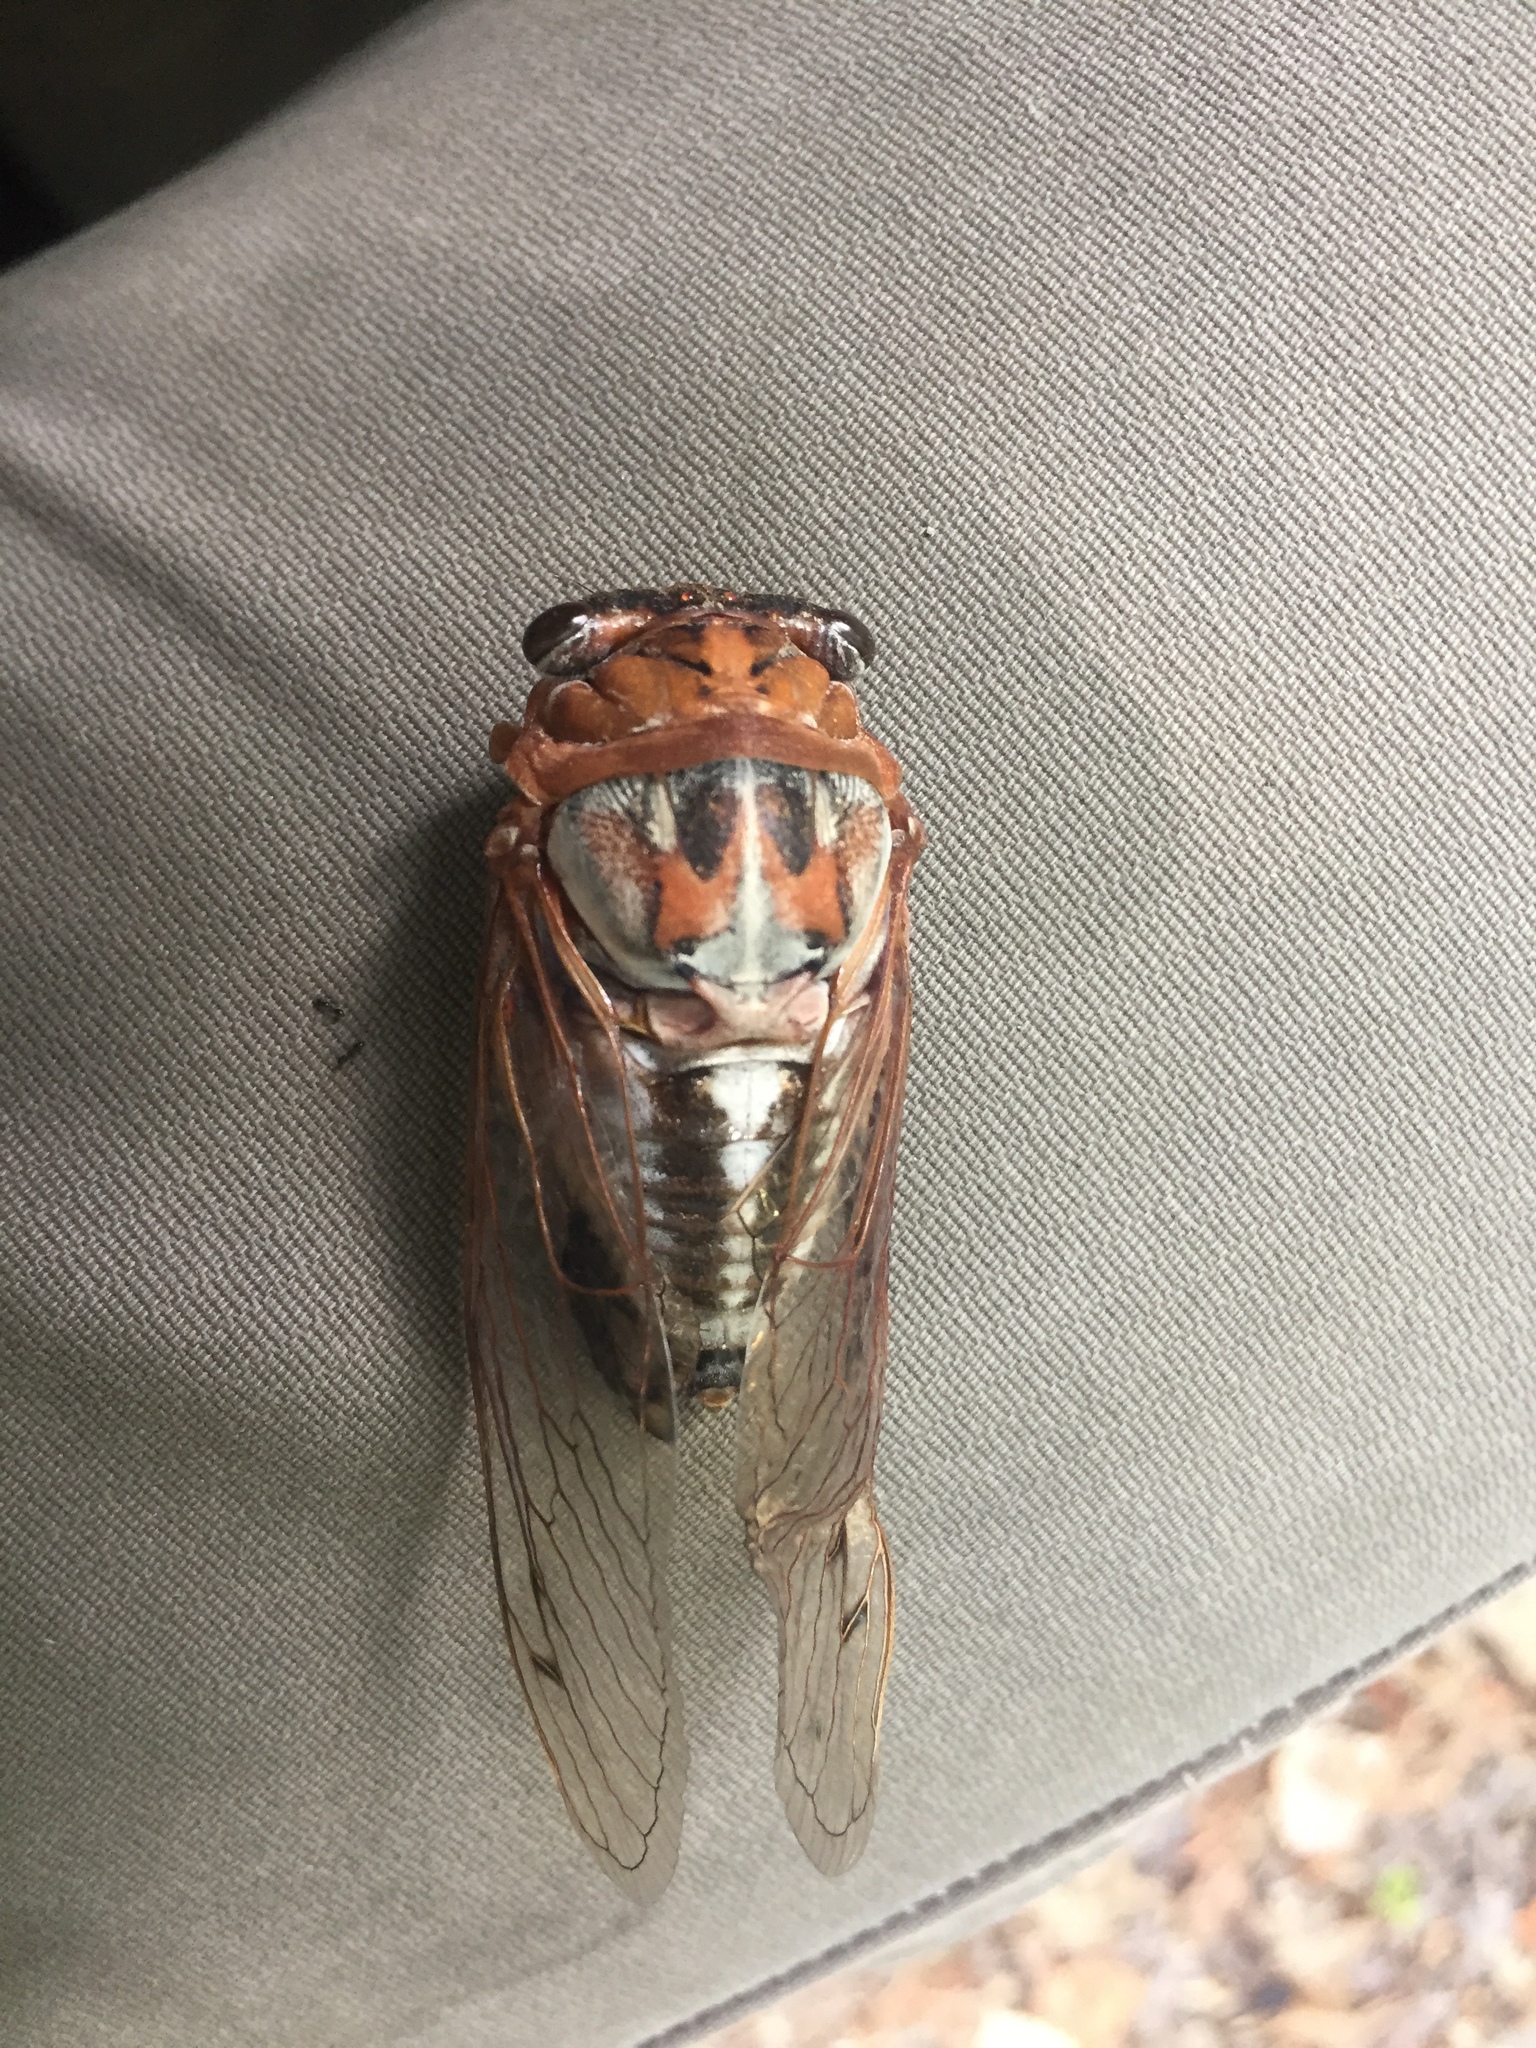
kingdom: Animalia
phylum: Arthropoda
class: Insecta
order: Hemiptera
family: Cicadidae
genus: Megatibicen
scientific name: Megatibicen dealbatus
